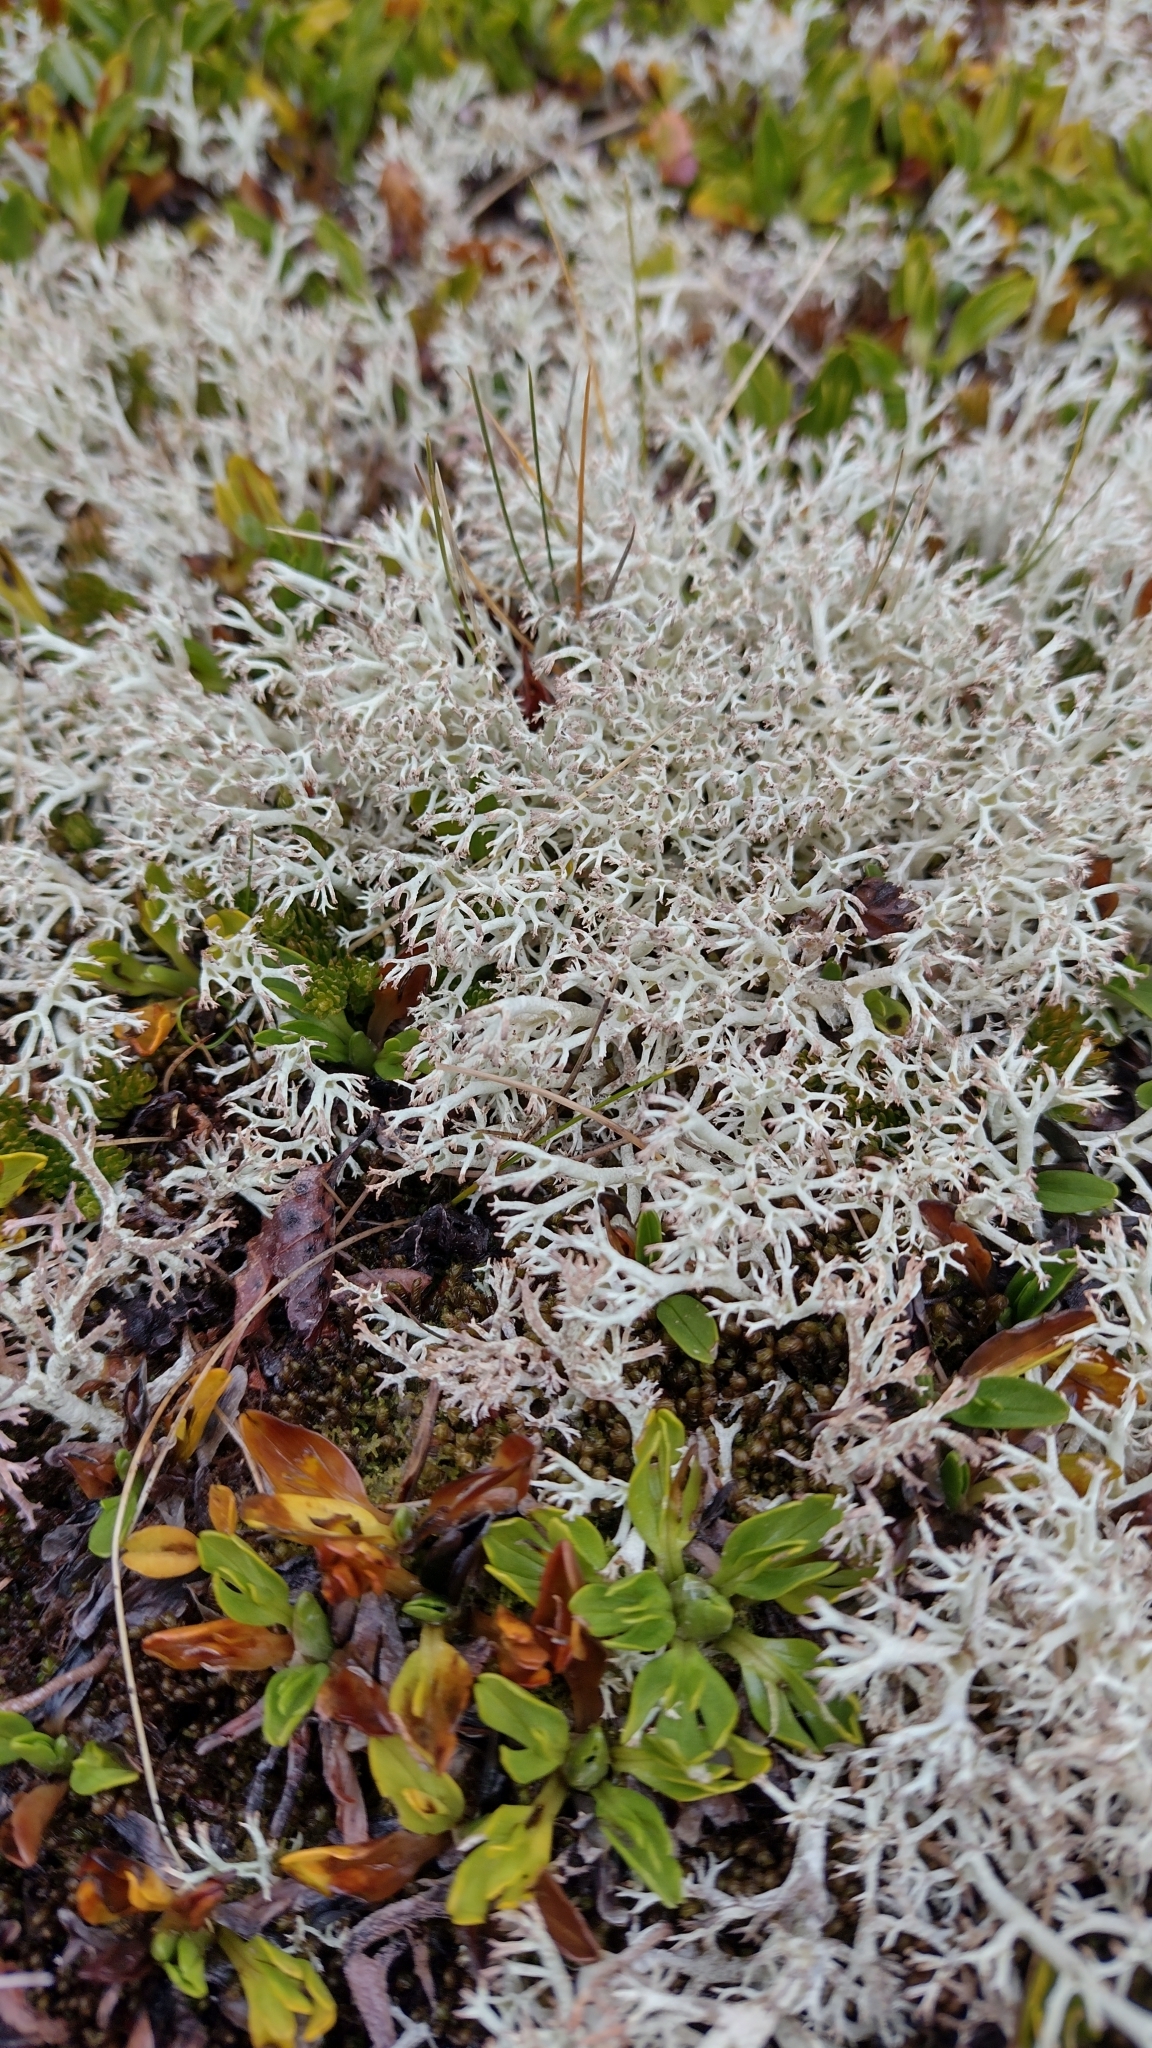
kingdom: Fungi
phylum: Ascomycota
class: Lecanoromycetes
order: Lecanorales
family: Cladoniaceae
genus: Cladonia
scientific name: Cladonia arbuscula
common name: Reindeer lichen
